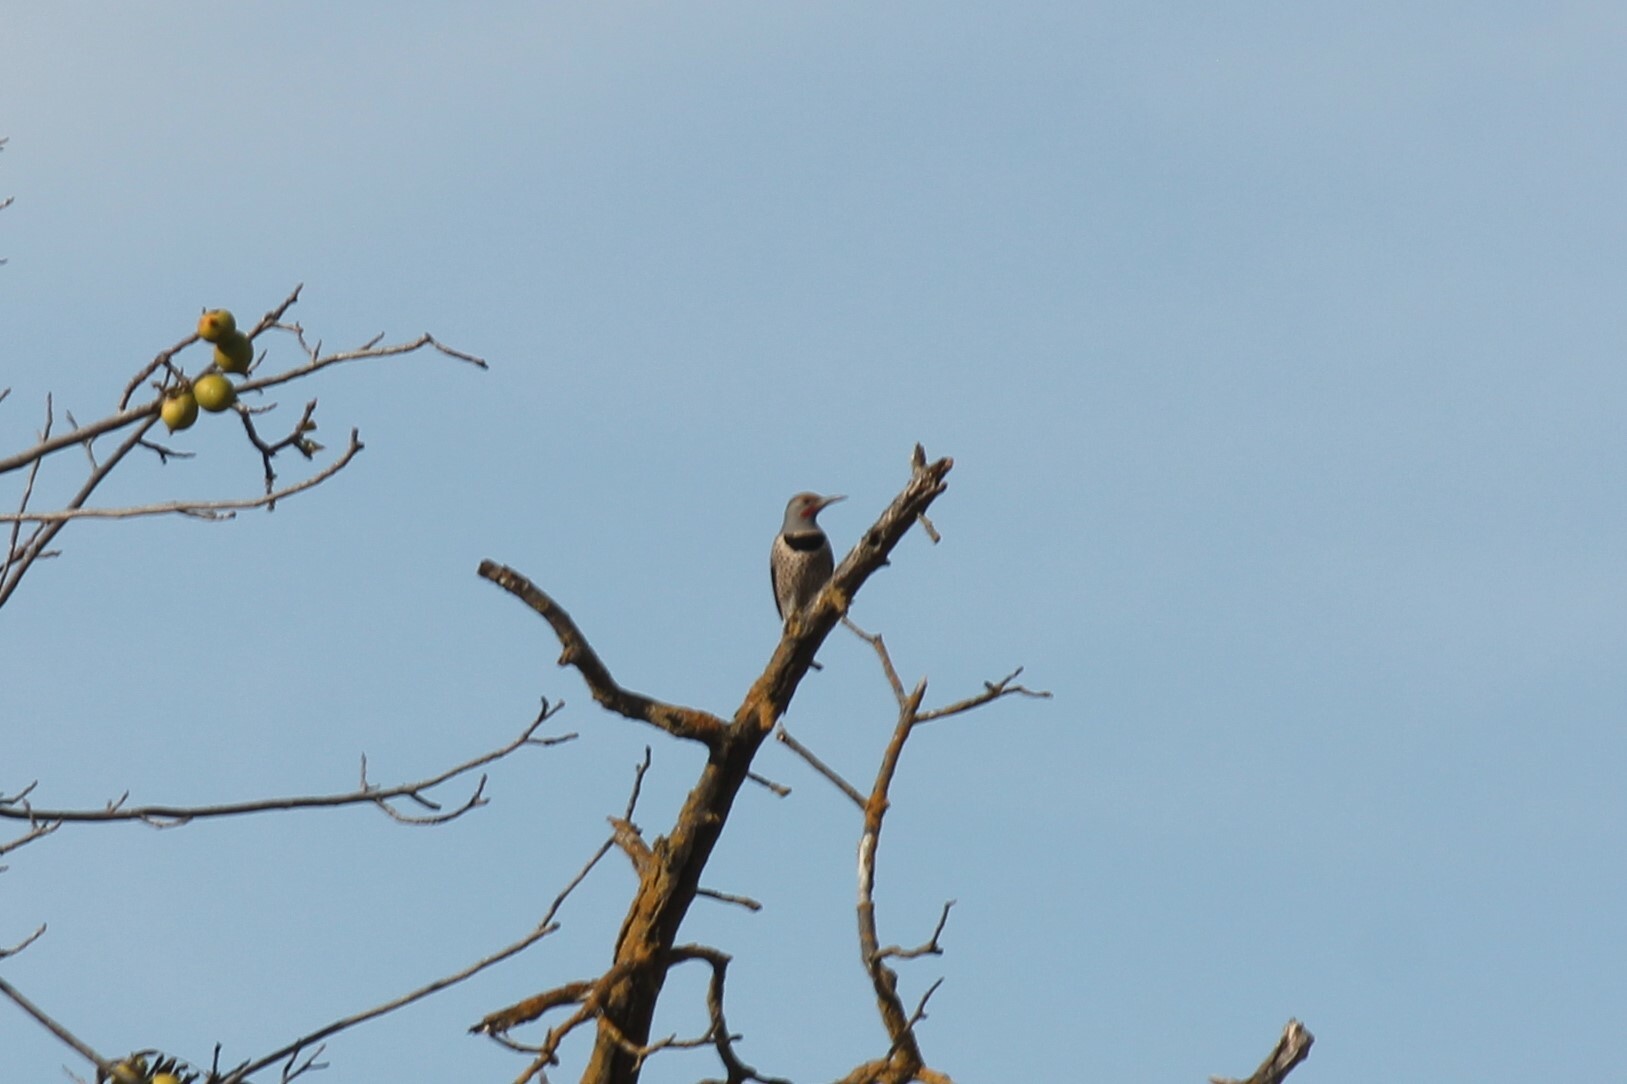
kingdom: Animalia
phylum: Chordata
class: Aves
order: Piciformes
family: Picidae
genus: Colaptes
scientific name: Colaptes auratus
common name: Northern flicker
